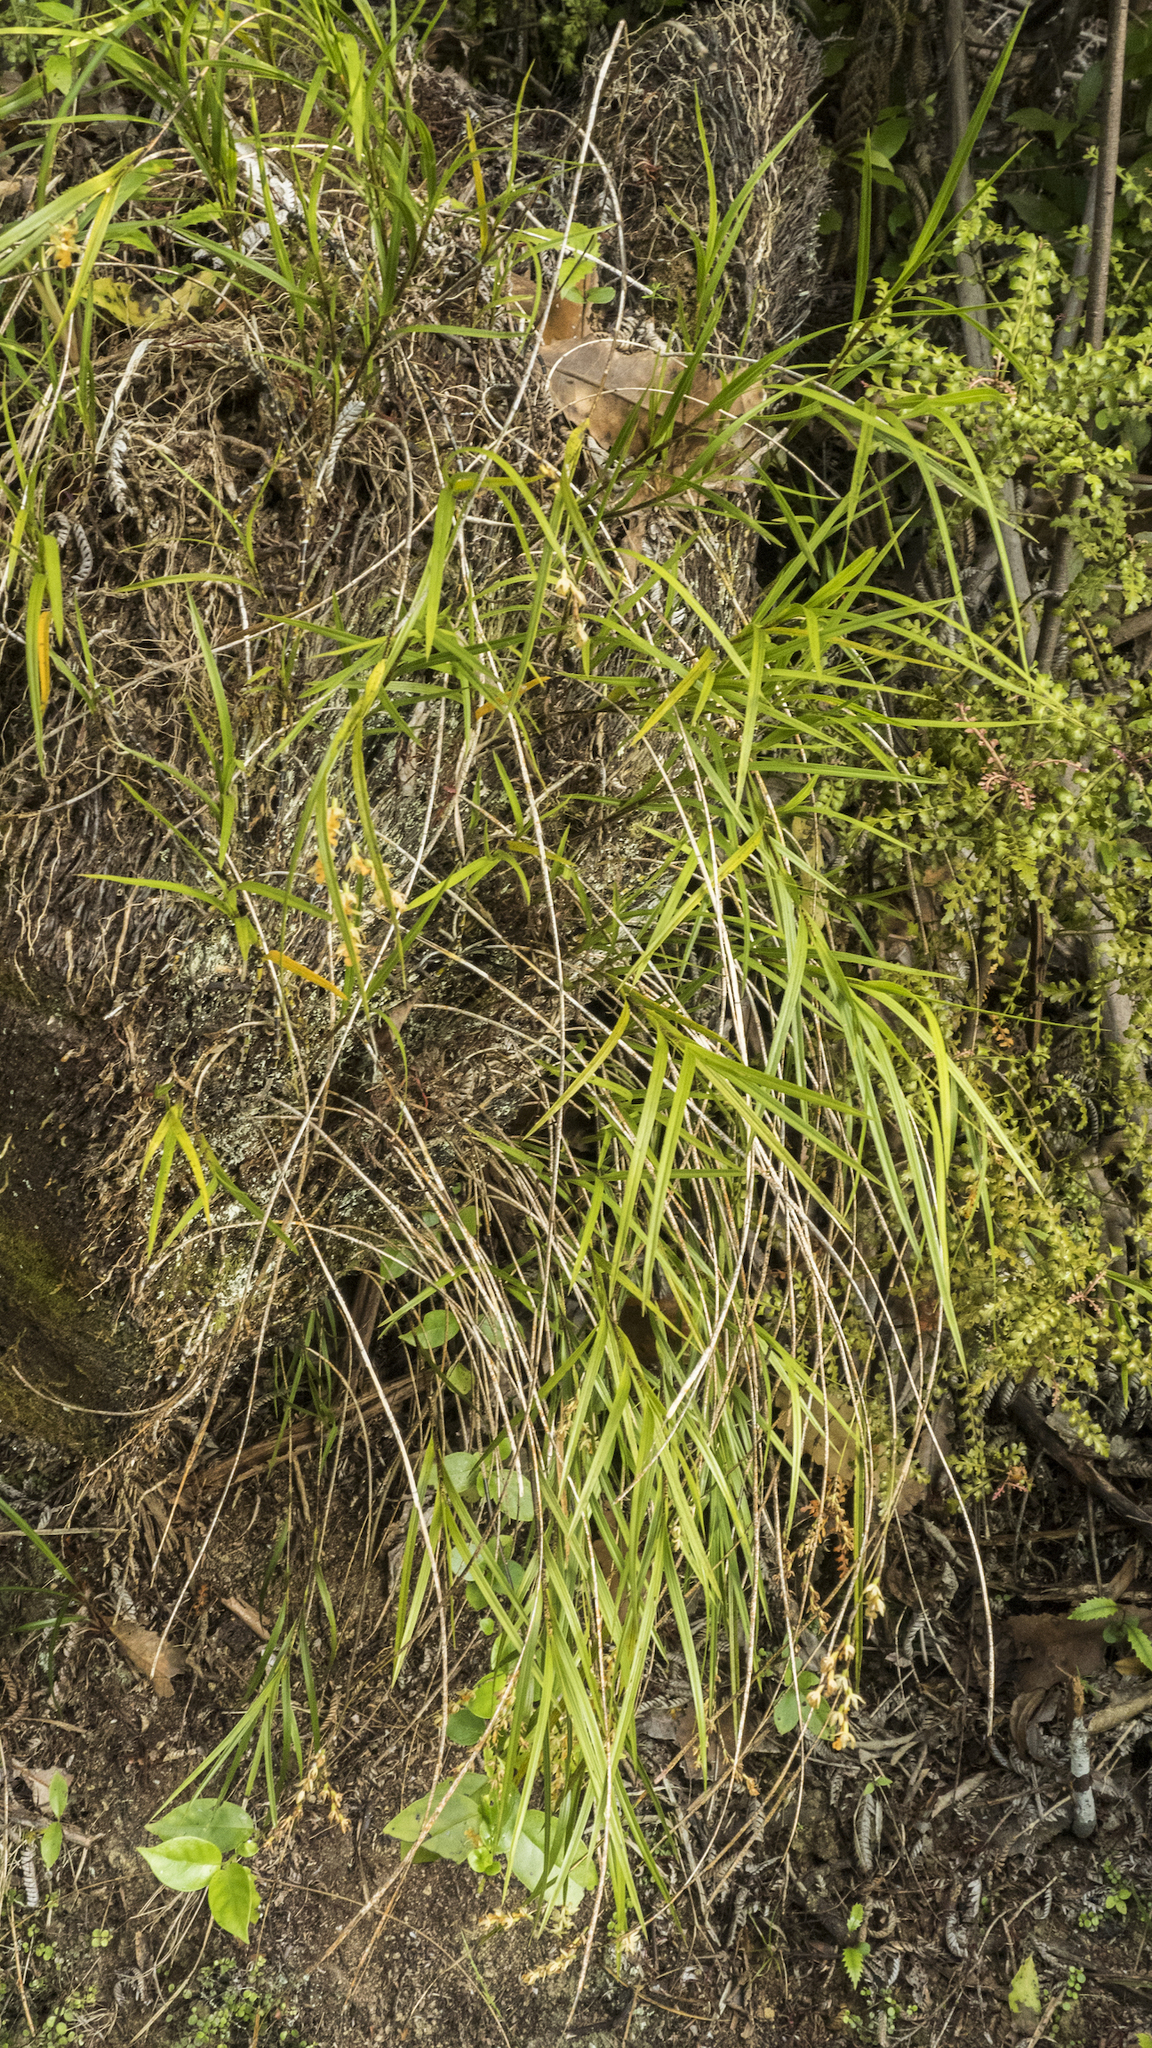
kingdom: Plantae
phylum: Tracheophyta
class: Liliopsida
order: Asparagales
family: Orchidaceae
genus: Earina
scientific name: Earina mucronata
